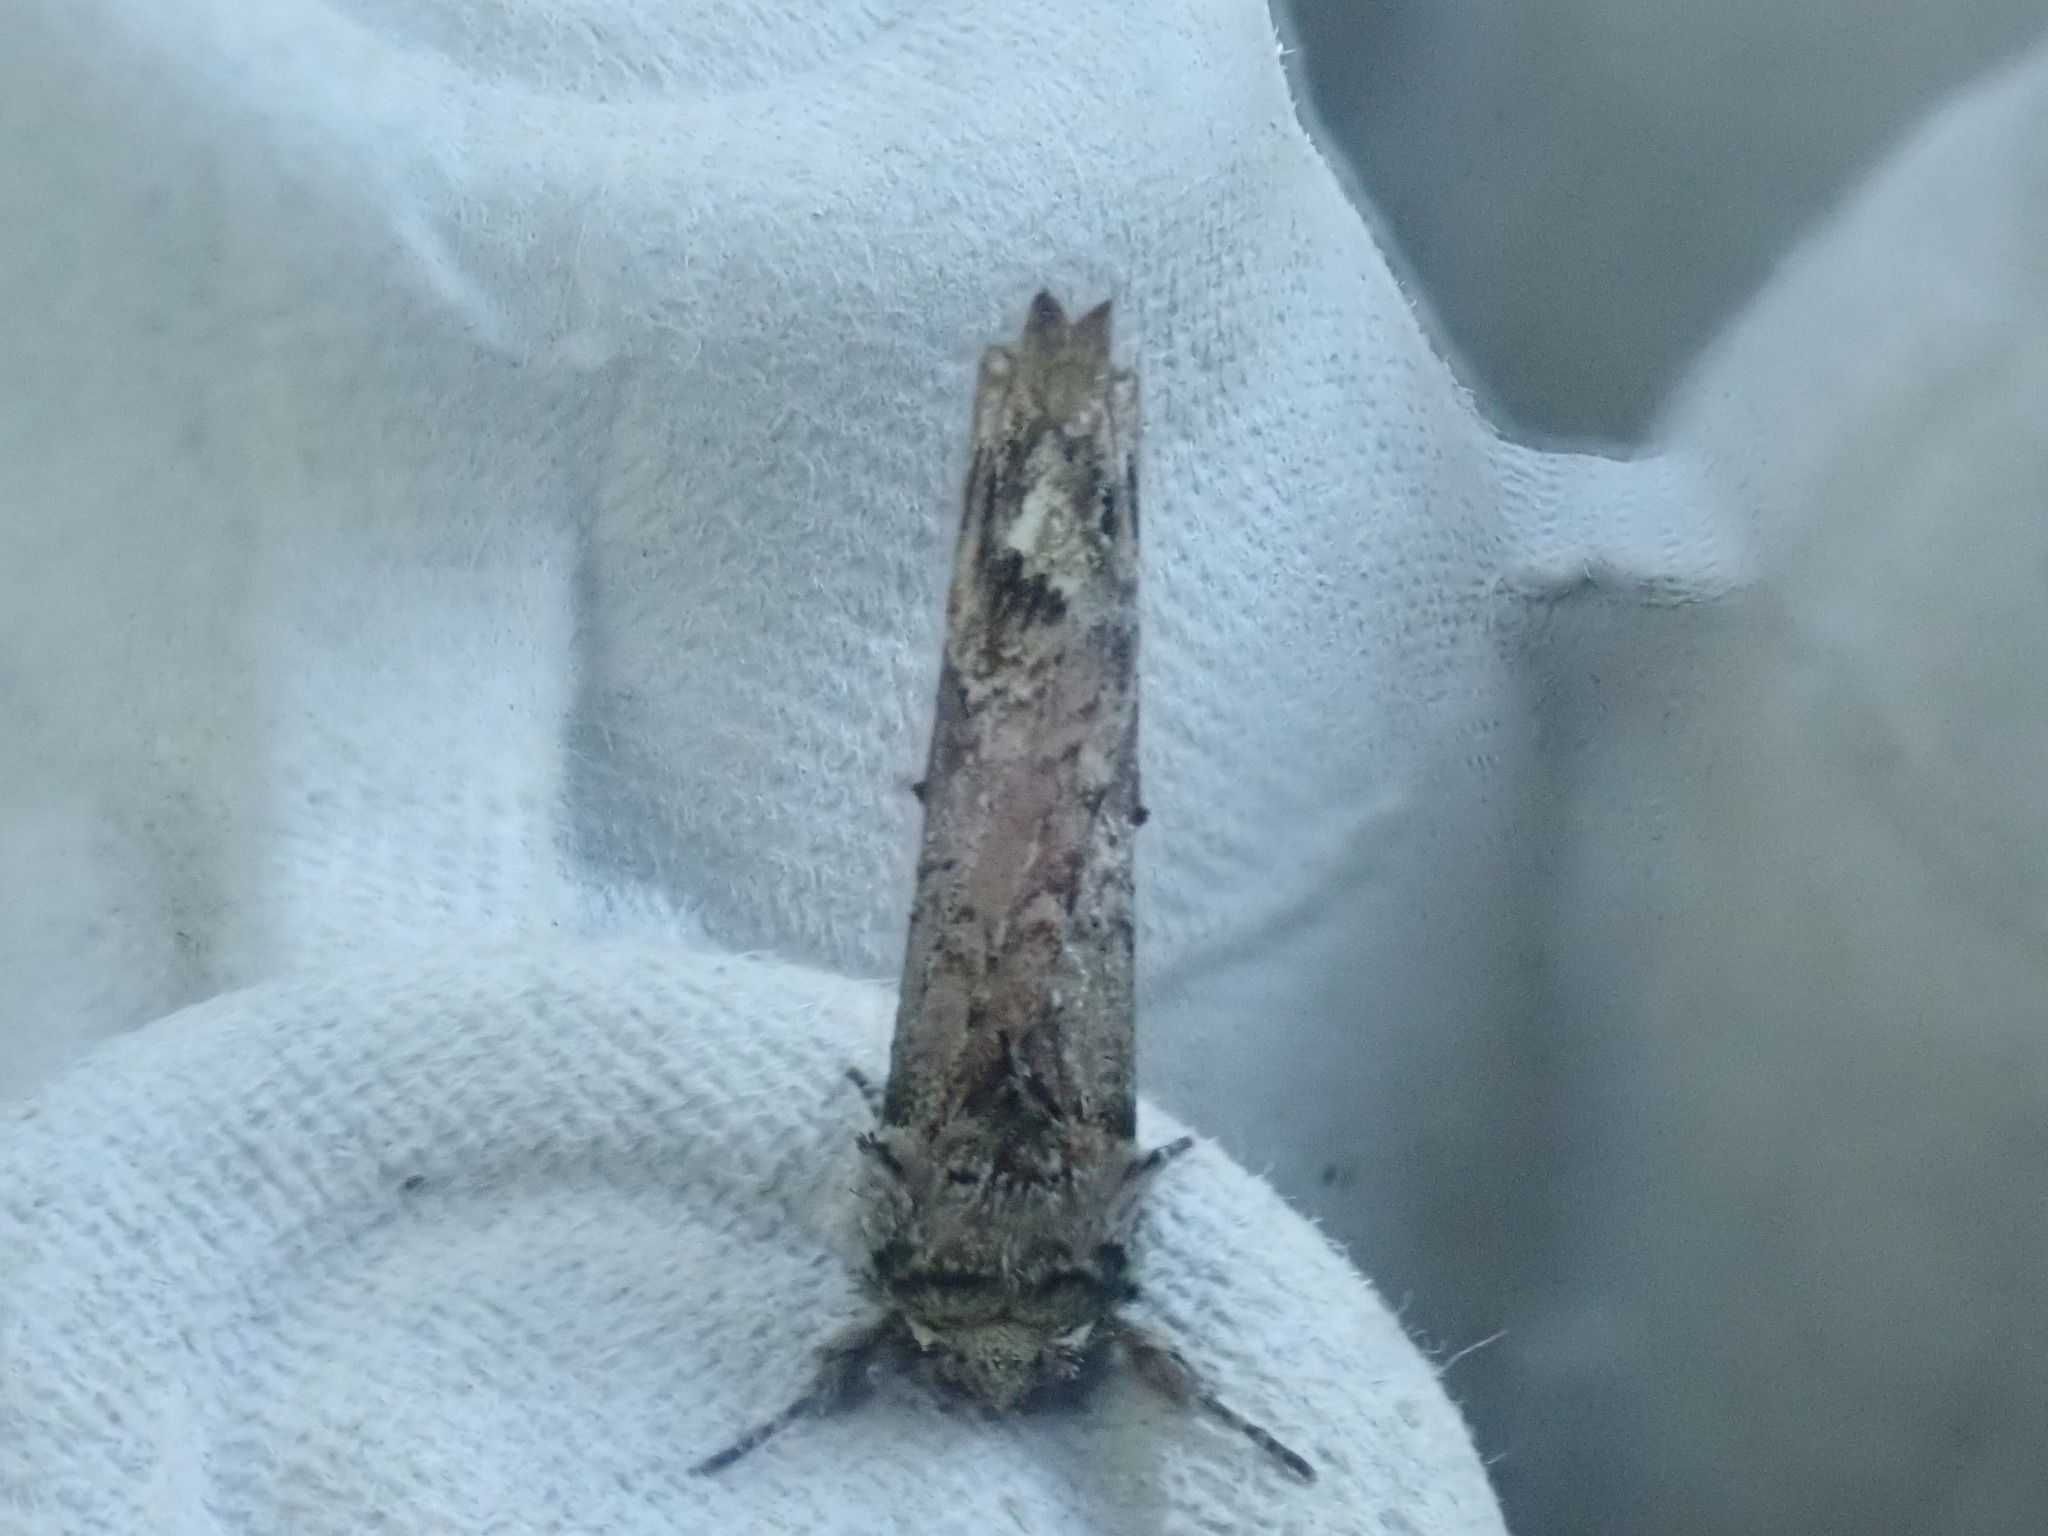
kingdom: Animalia
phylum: Arthropoda
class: Insecta
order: Lepidoptera
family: Notodontidae
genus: Schizura
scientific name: Schizura
